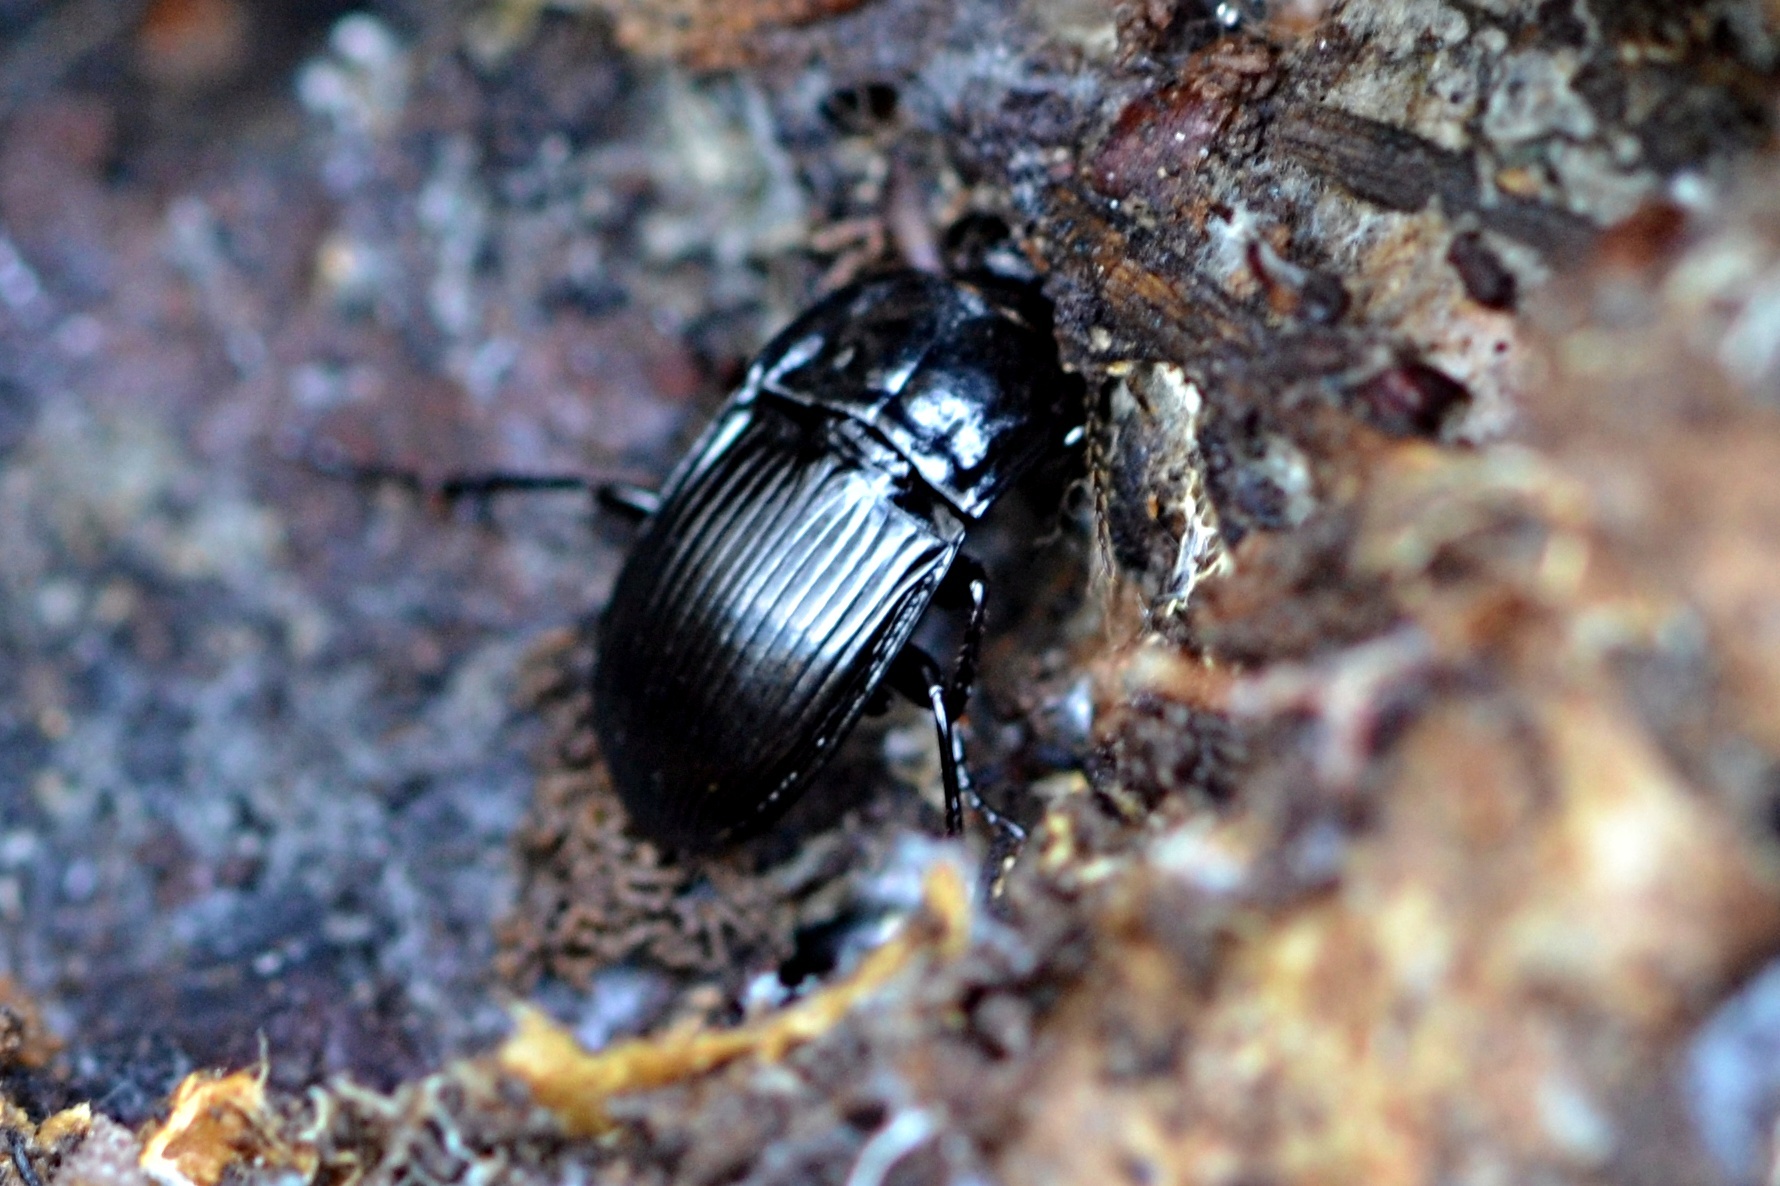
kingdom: Animalia
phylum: Arthropoda
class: Insecta
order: Coleoptera
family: Carabidae
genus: Abax
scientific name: Abax ovalis
